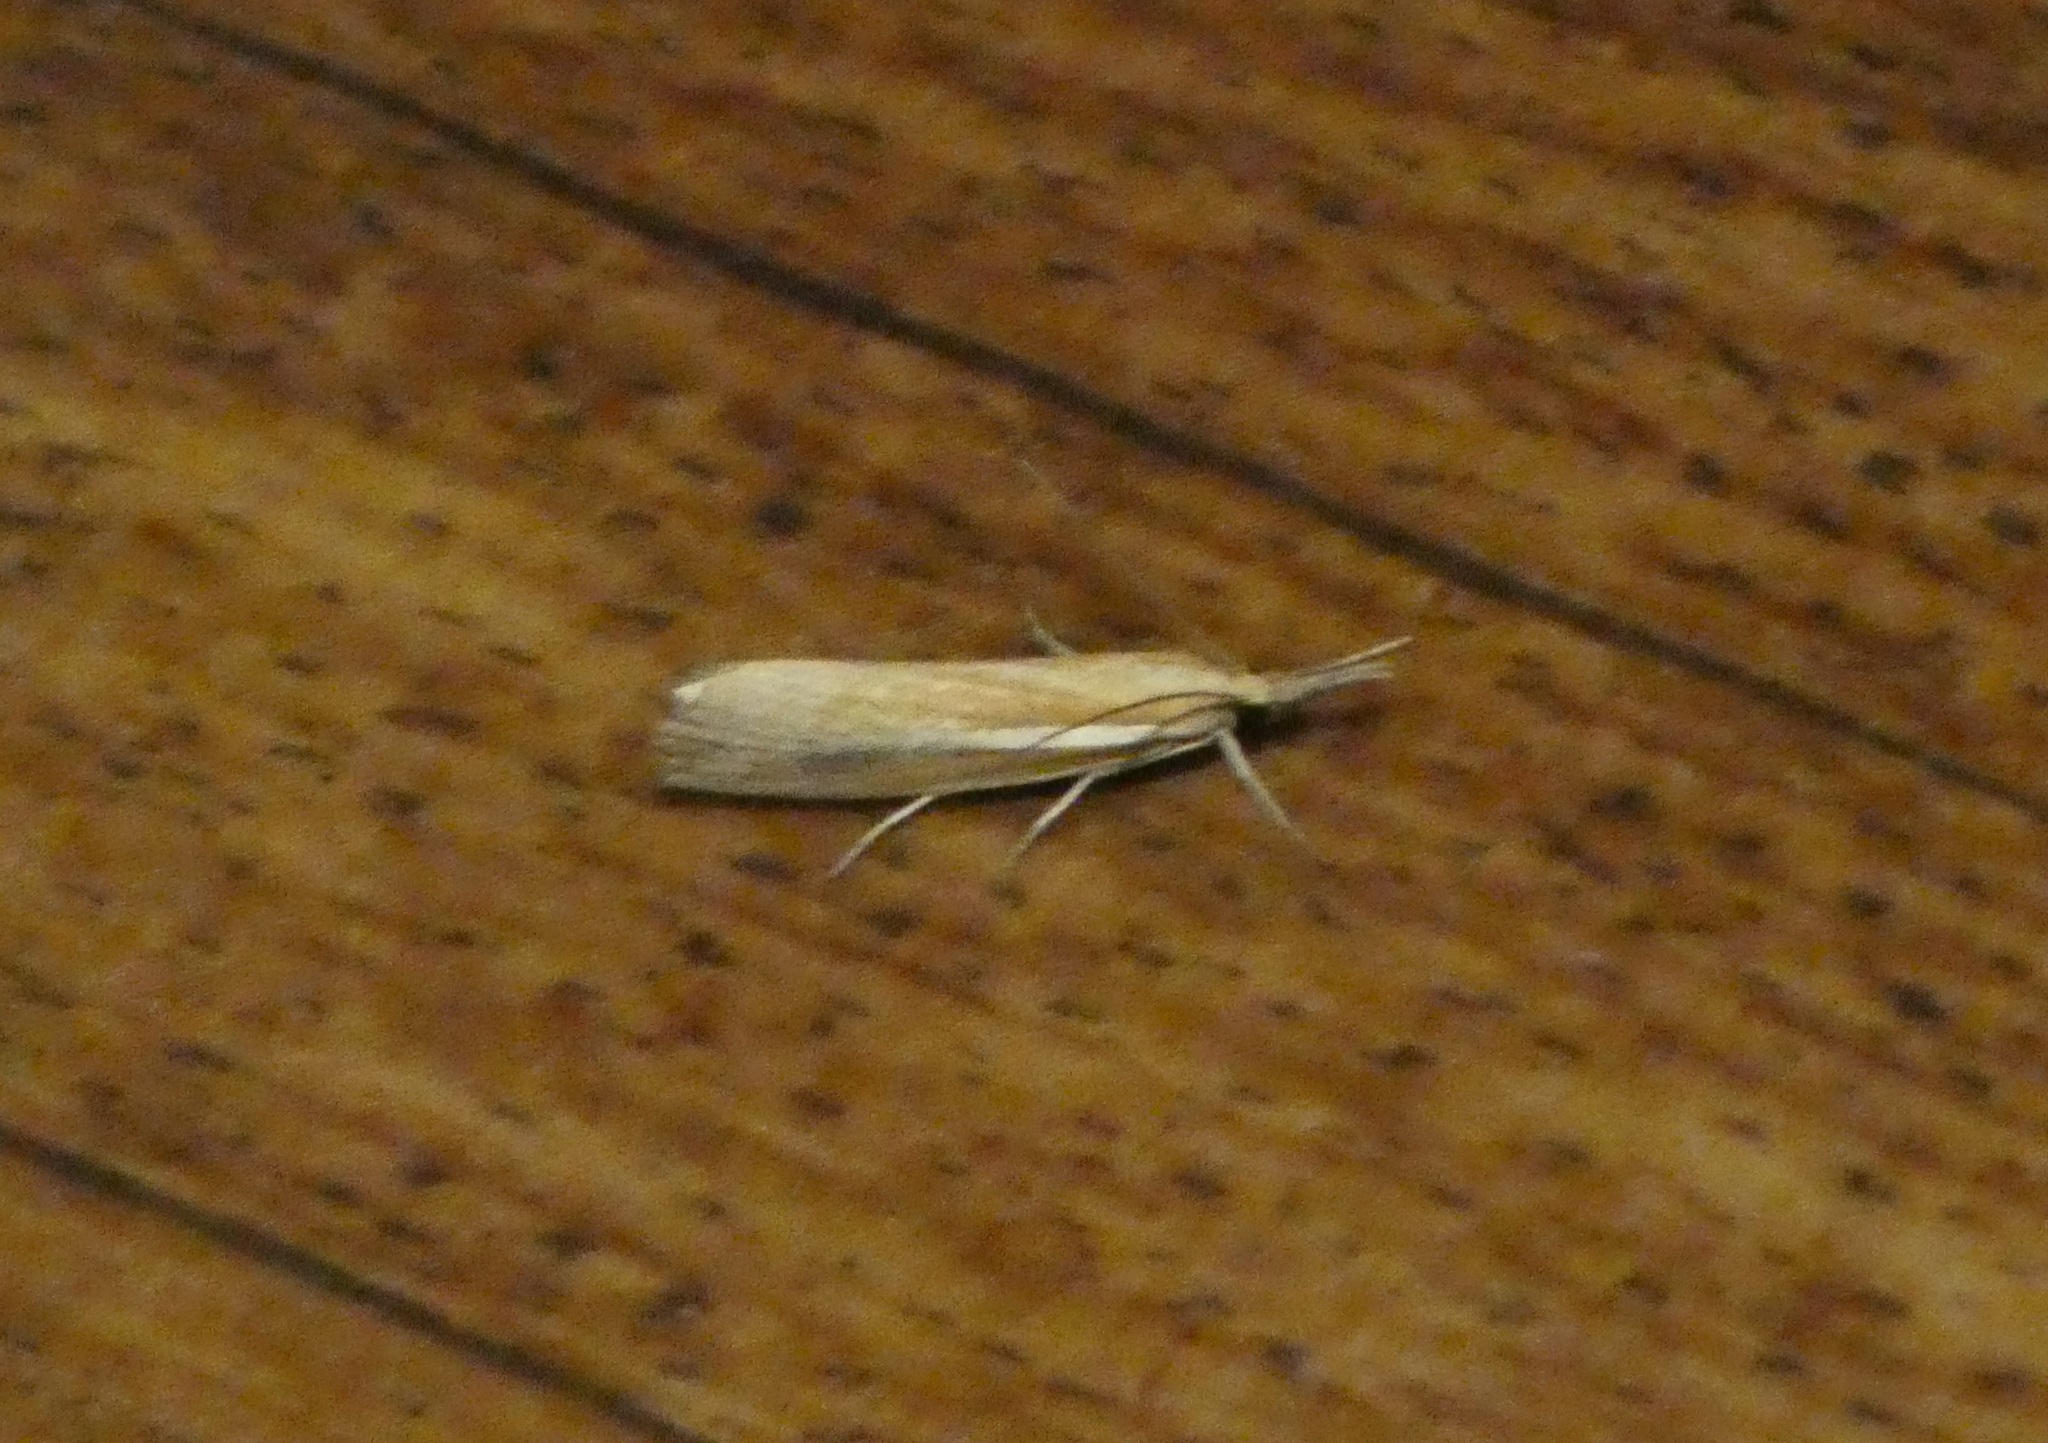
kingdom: Animalia
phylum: Arthropoda
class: Insecta
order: Lepidoptera
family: Crambidae
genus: Agriphila
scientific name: Agriphila tristellus
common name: Common grass-veneer
